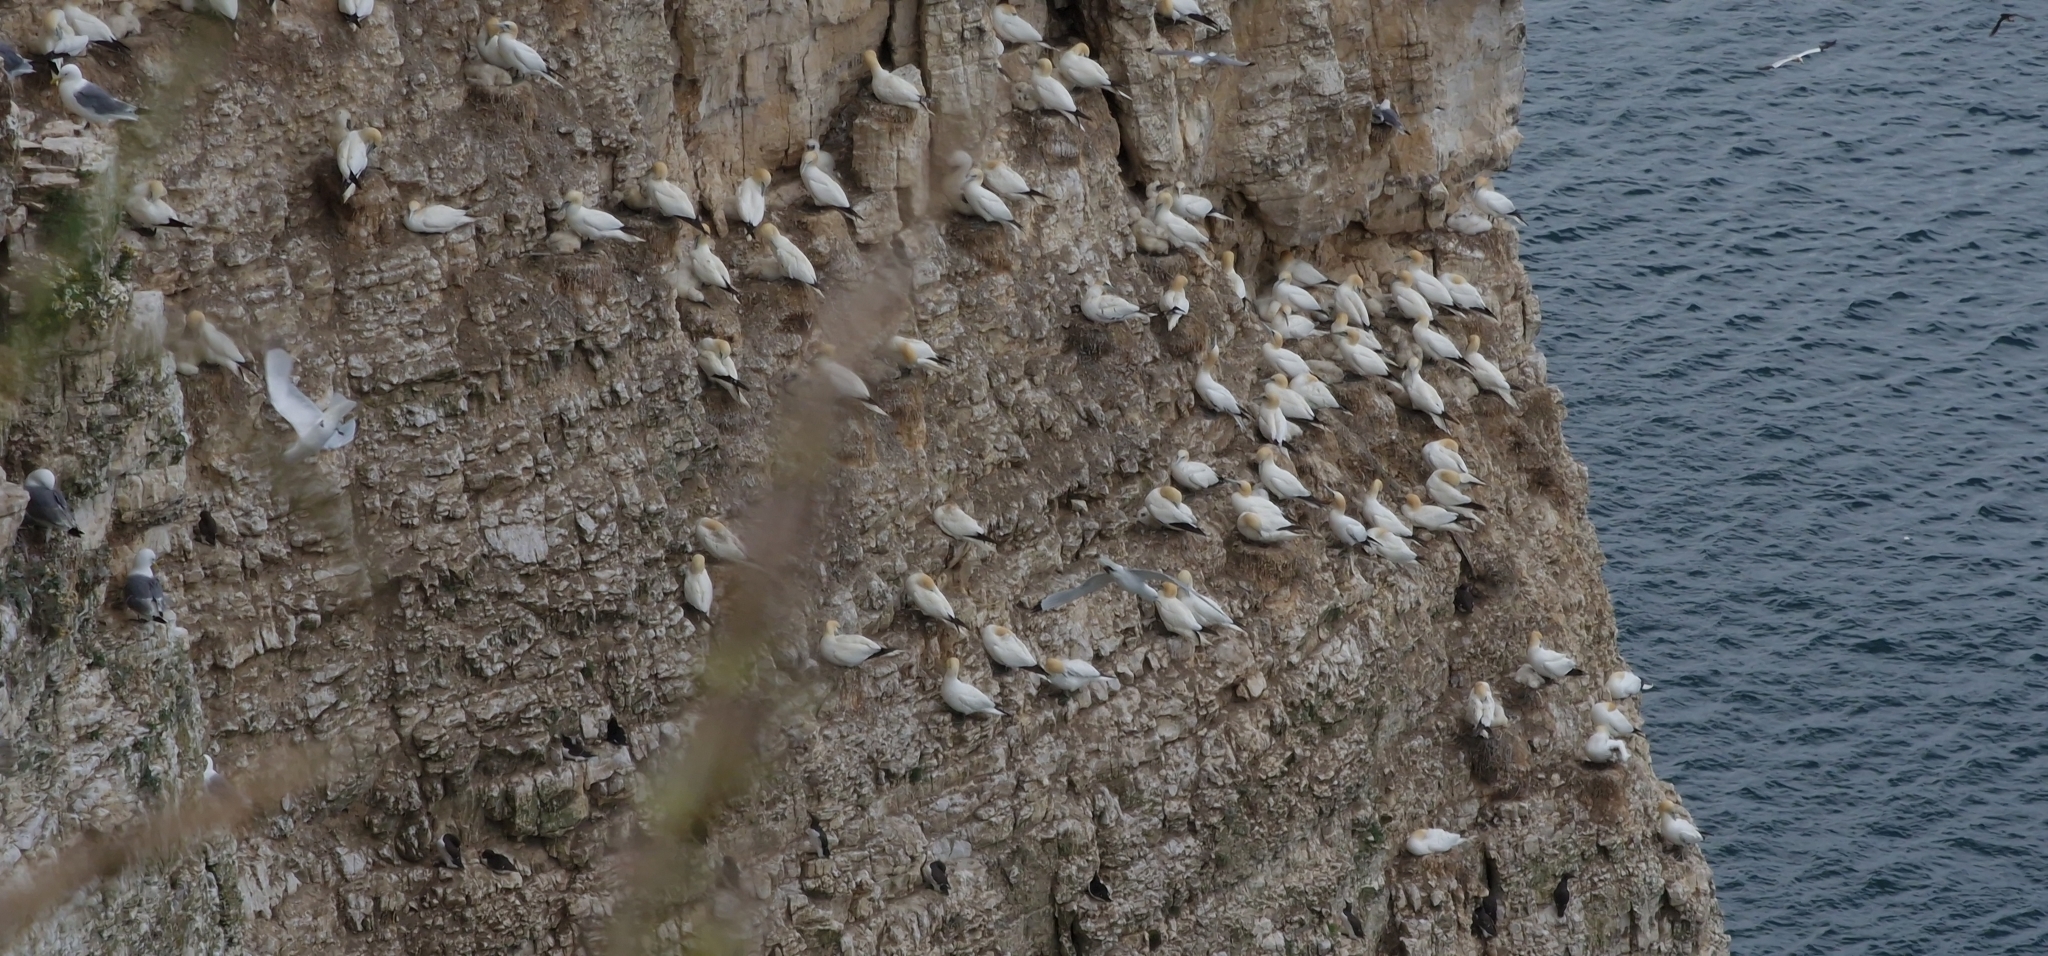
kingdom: Animalia
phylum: Chordata
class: Aves
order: Suliformes
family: Sulidae
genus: Morus
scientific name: Morus bassanus
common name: Northern gannet
